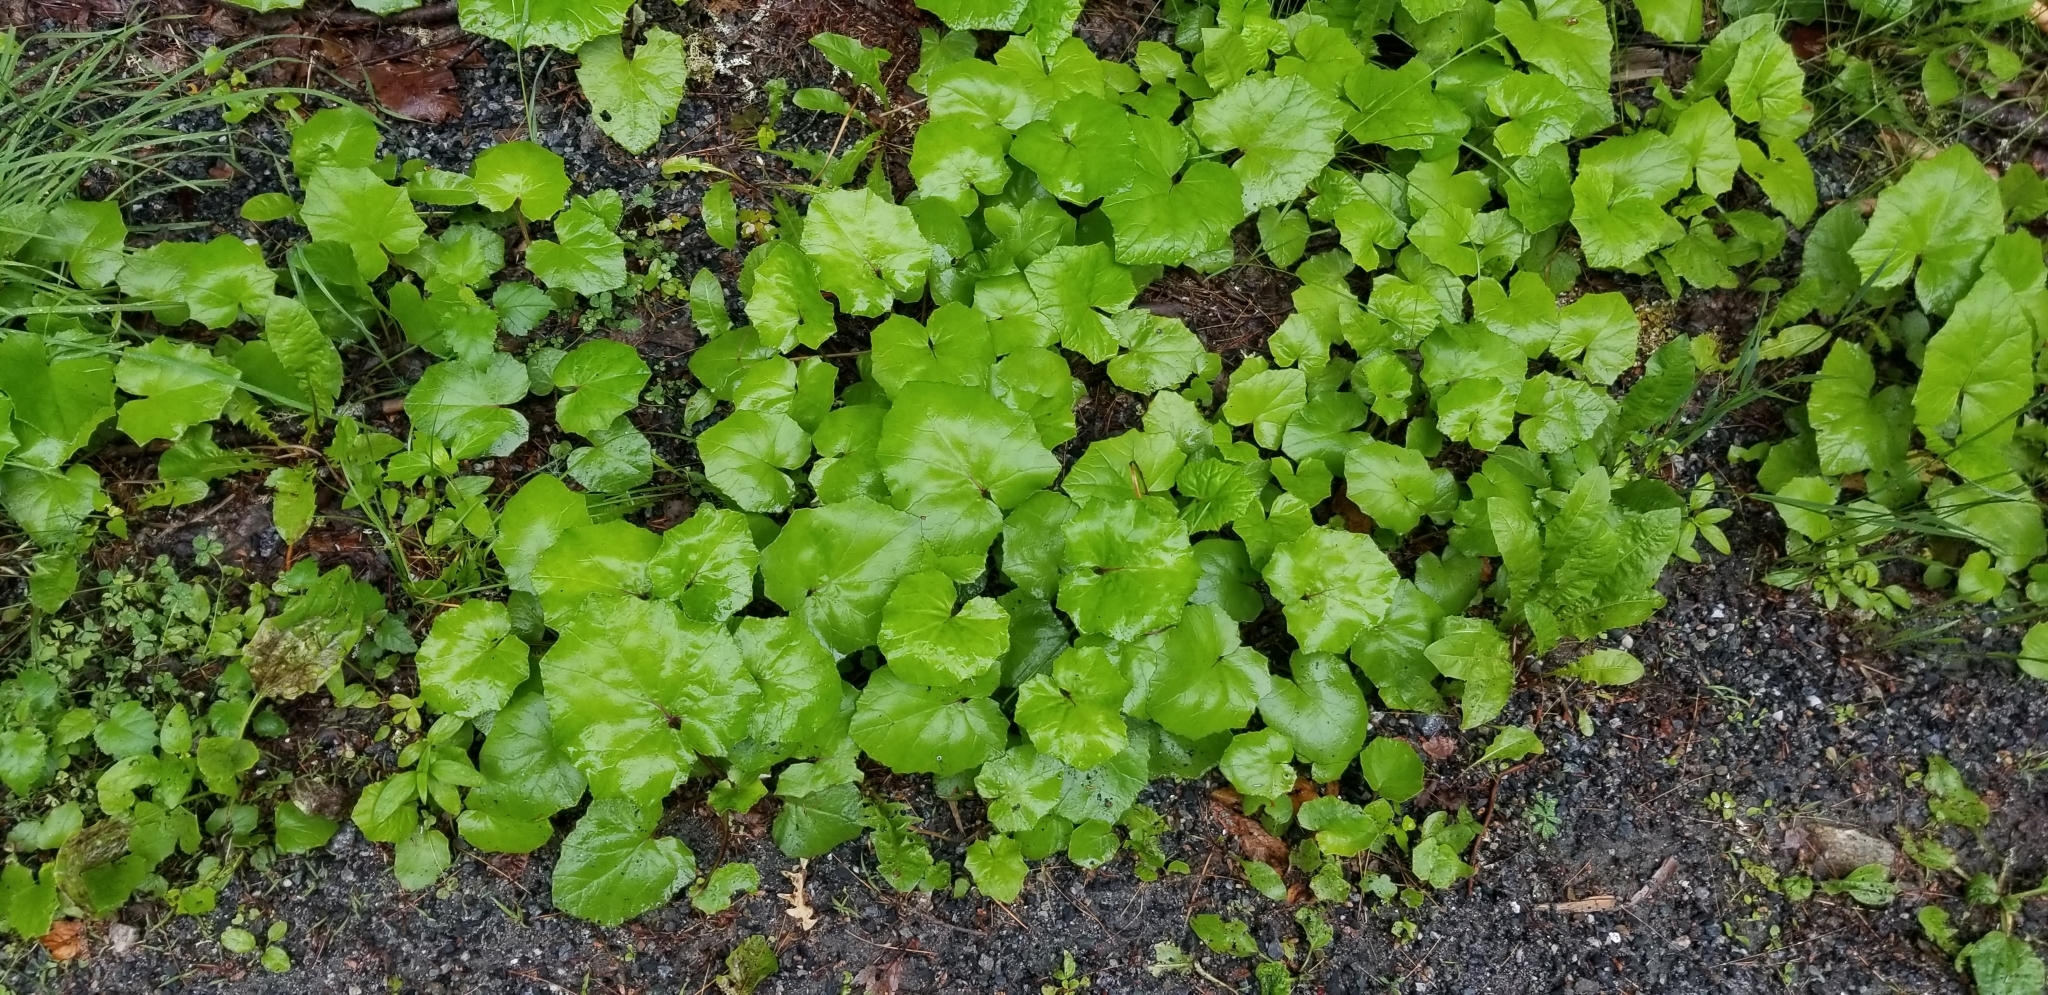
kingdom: Plantae
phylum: Tracheophyta
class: Magnoliopsida
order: Asterales
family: Asteraceae
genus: Tussilago
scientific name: Tussilago farfara
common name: Coltsfoot
